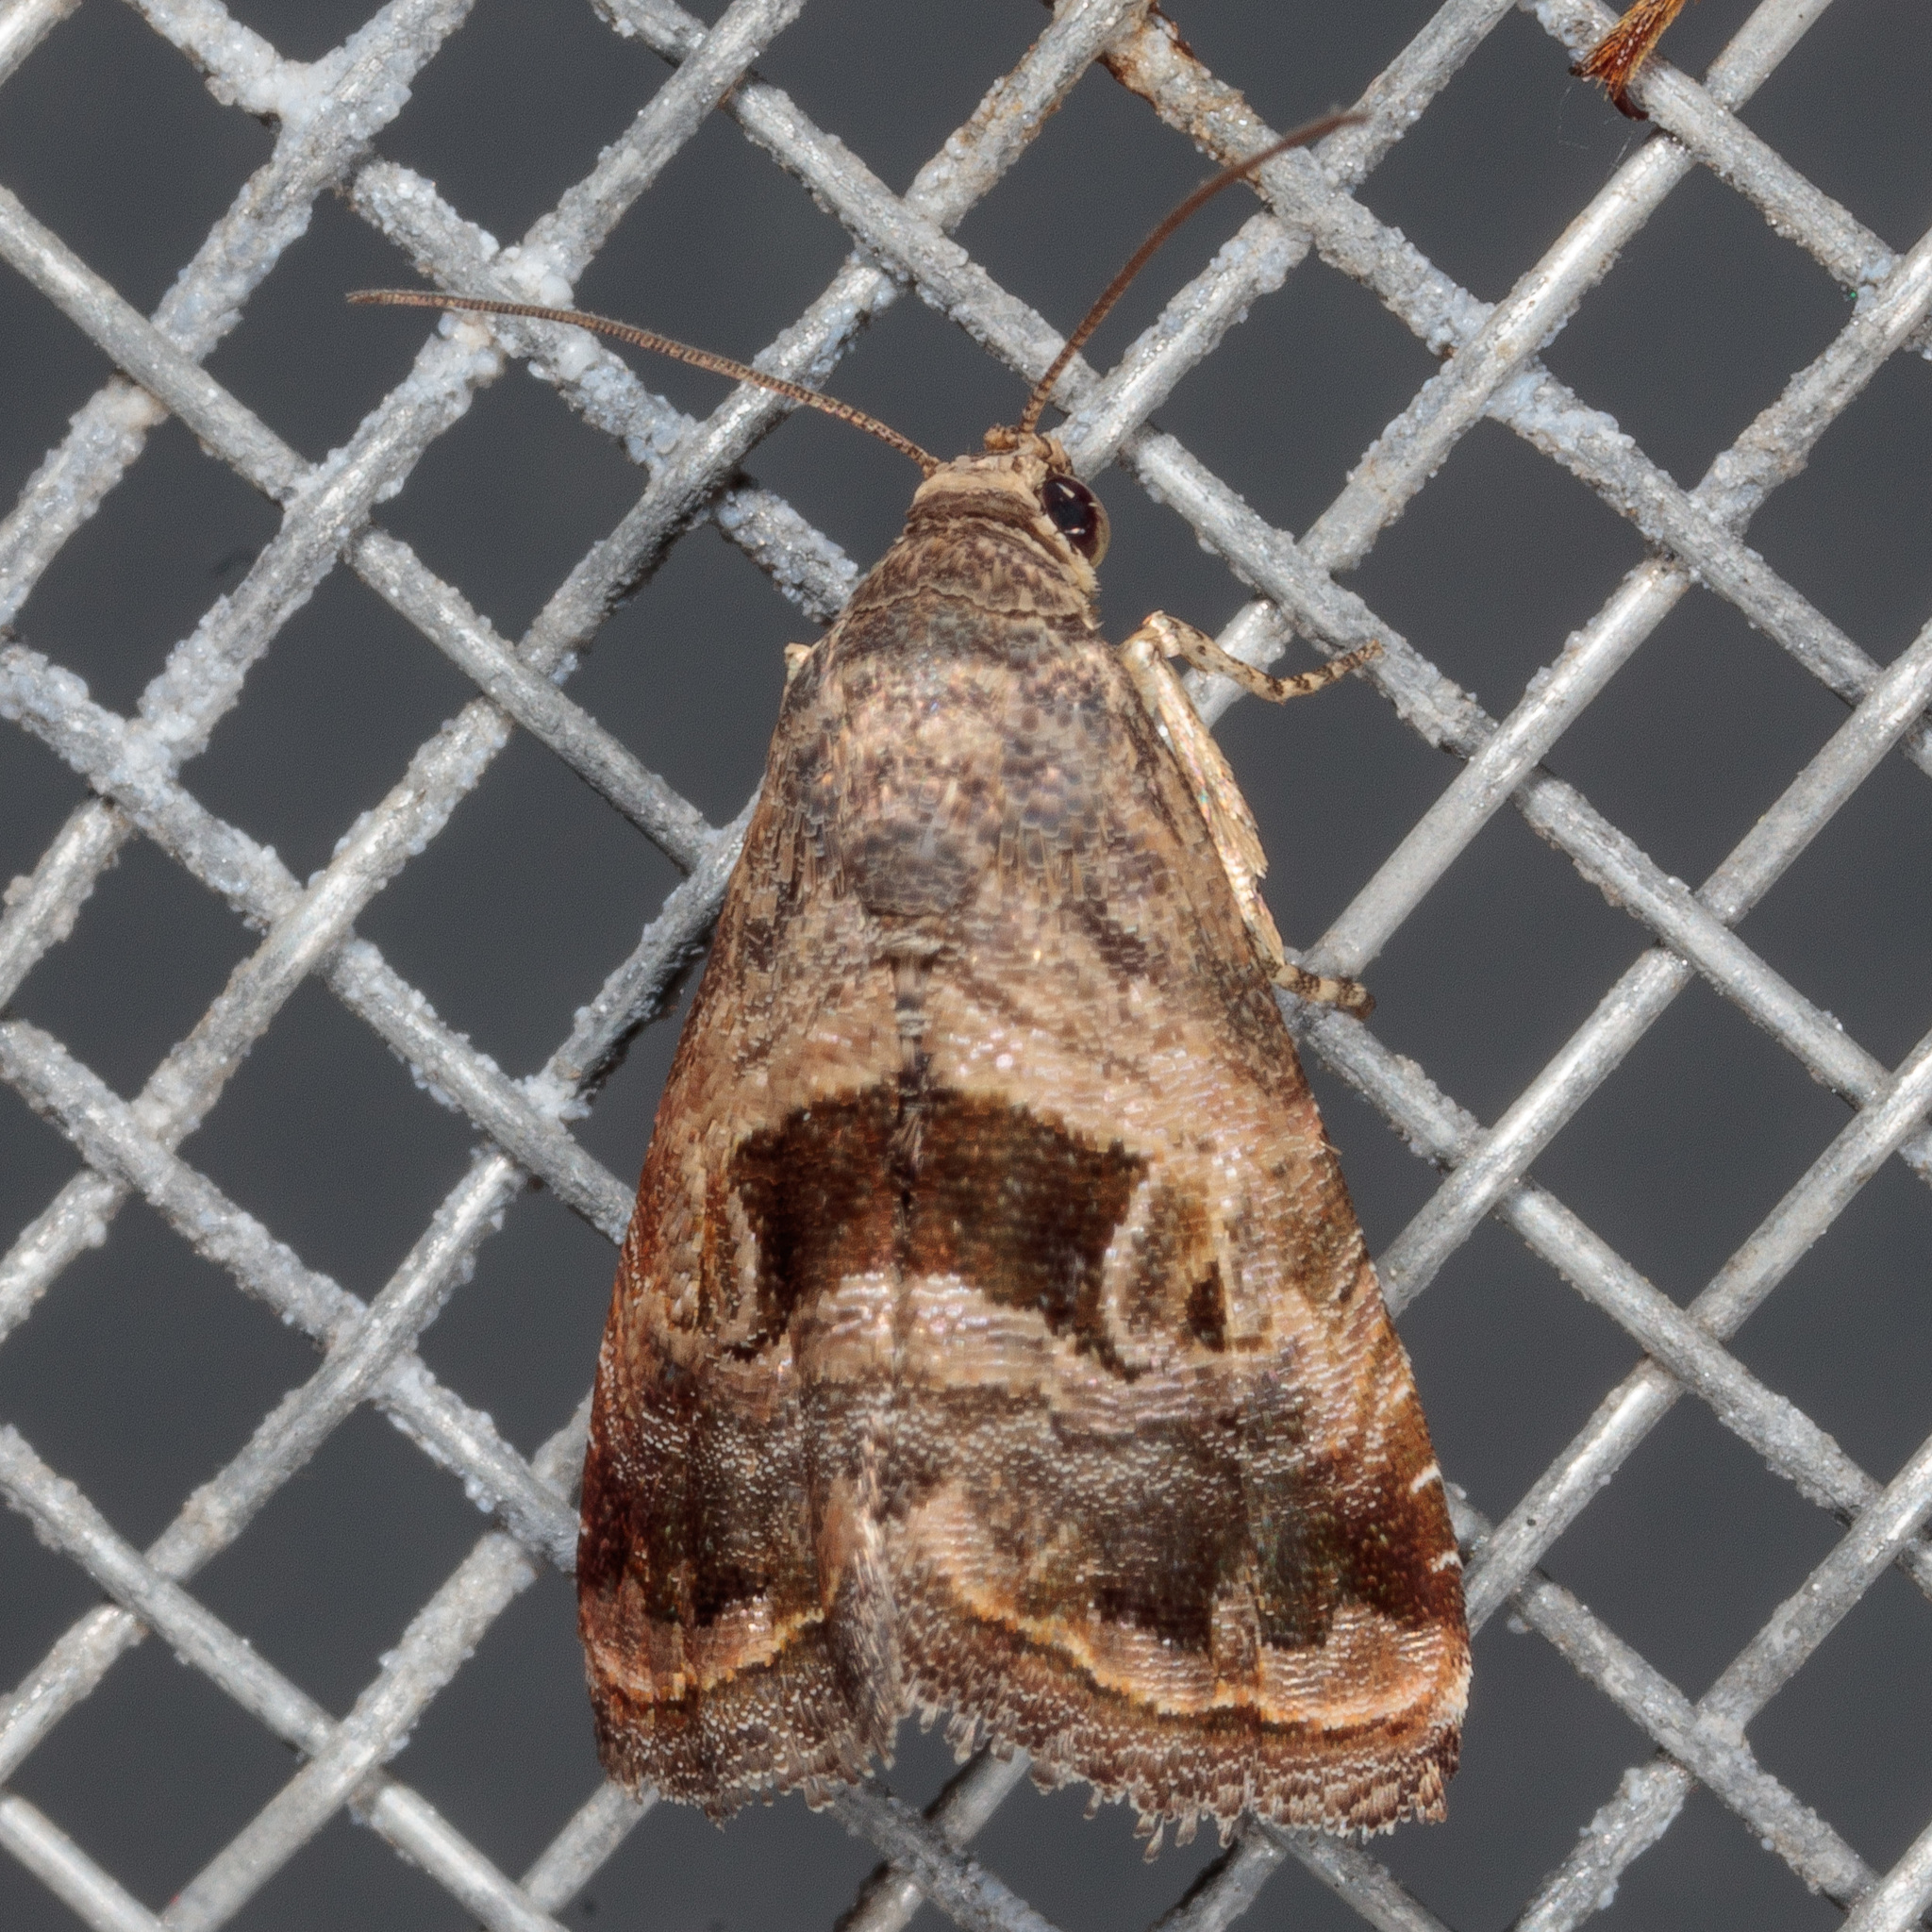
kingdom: Animalia
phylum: Arthropoda
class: Insecta
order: Lepidoptera
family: Noctuidae
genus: Tripudia
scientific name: Tripudia quadrifera
